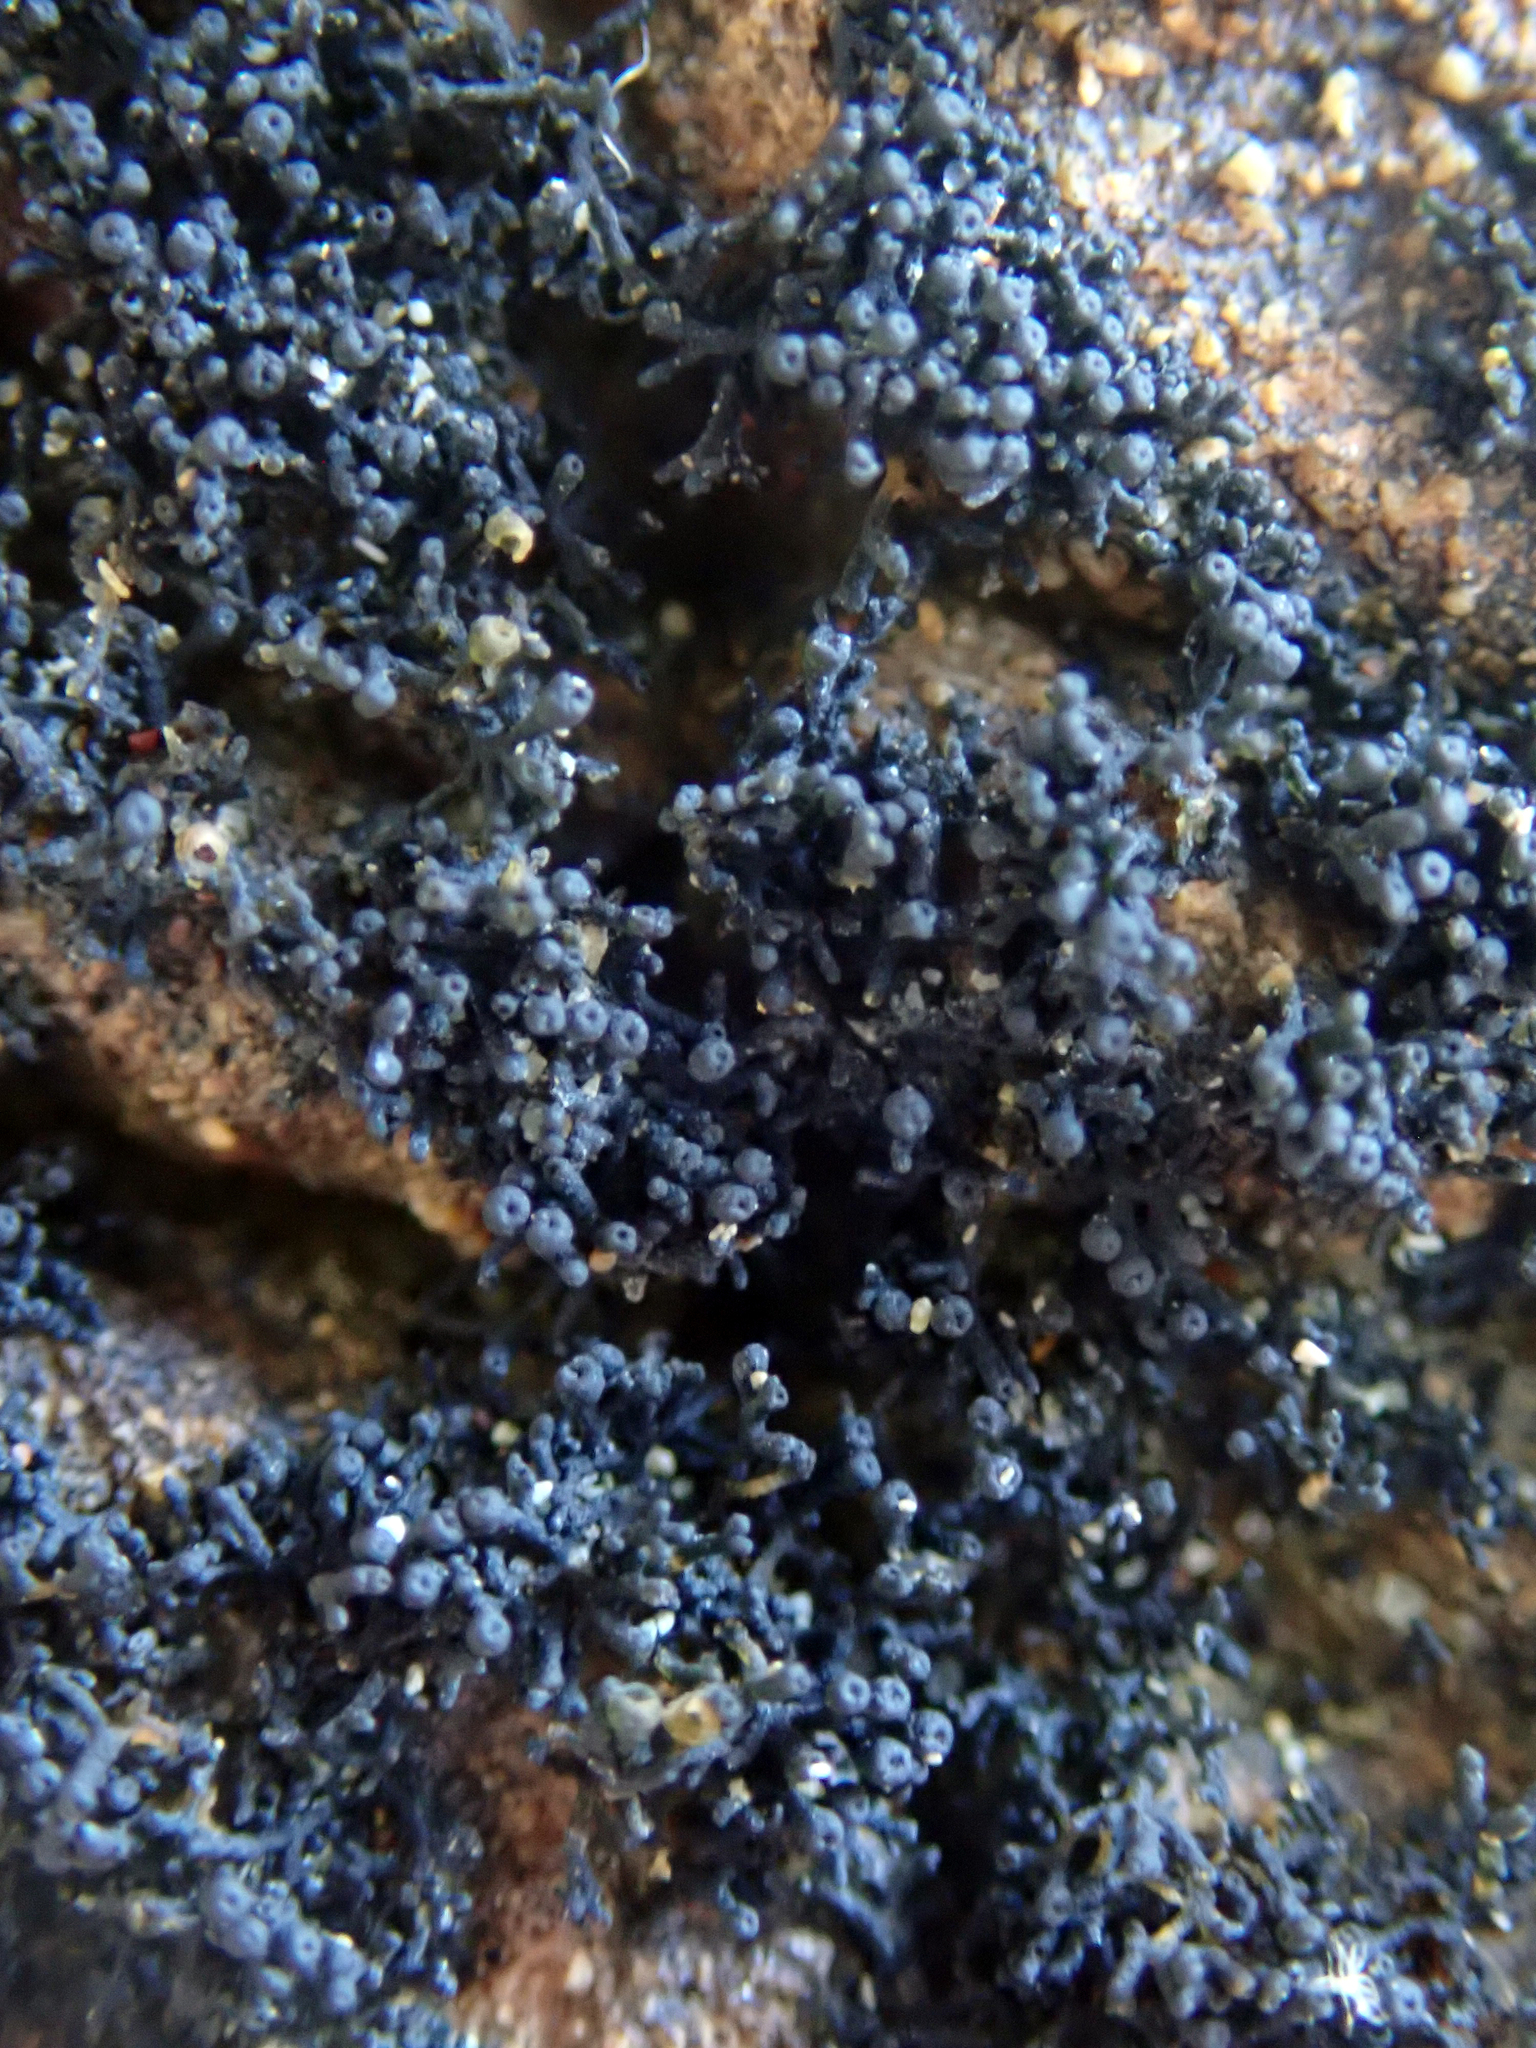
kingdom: Fungi
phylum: Ascomycota
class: Lichinomycetes
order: Lichinales
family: Lichinaceae
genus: Lichina
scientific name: Lichina intermedia
